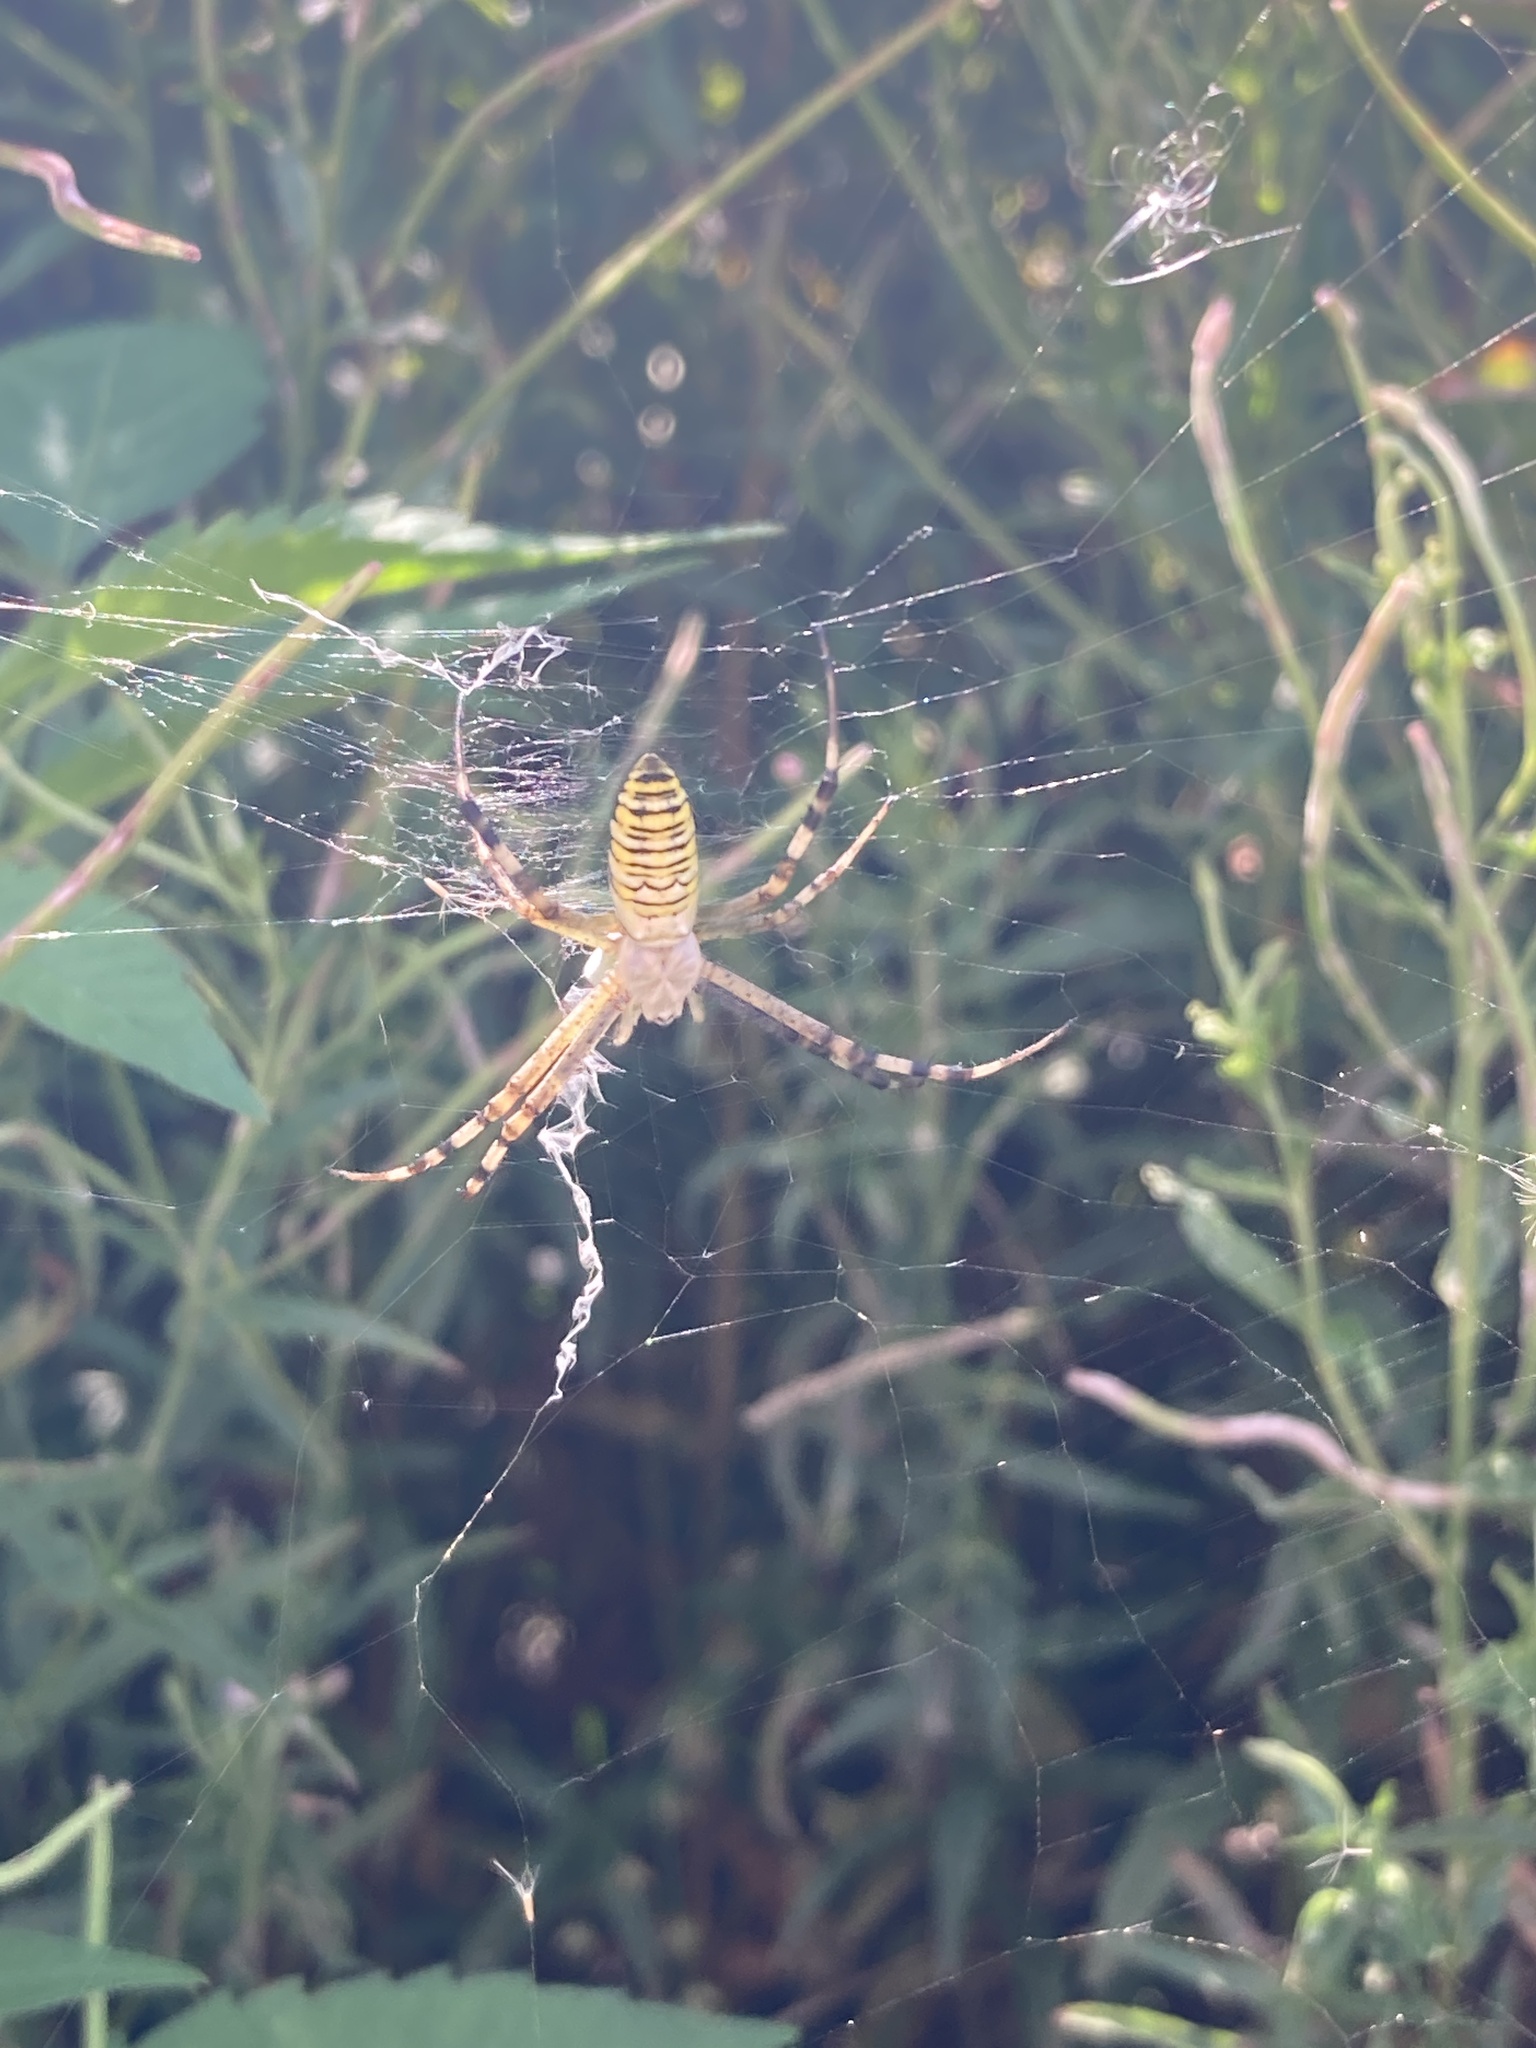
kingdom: Animalia
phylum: Arthropoda
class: Arachnida
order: Araneae
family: Araneidae
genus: Argiope
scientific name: Argiope bruennichi
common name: Wasp spider
